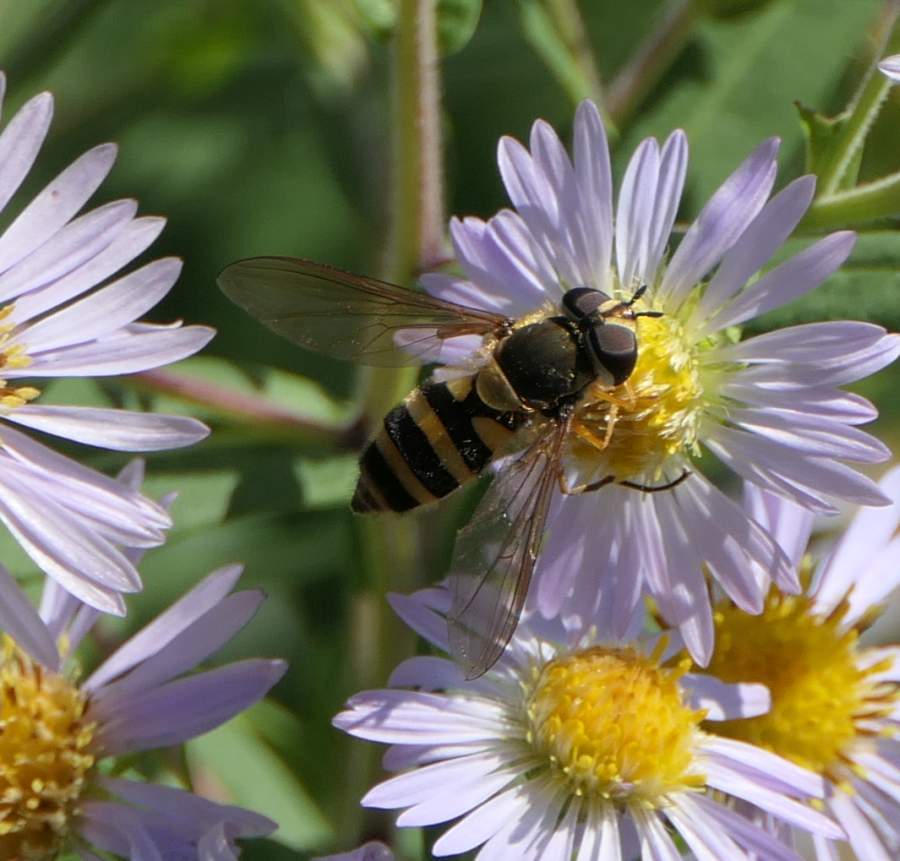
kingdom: Animalia
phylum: Arthropoda
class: Insecta
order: Diptera
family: Syrphidae
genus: Epistrophe
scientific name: Epistrophe grossulariae
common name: Black-horned smoothtail
